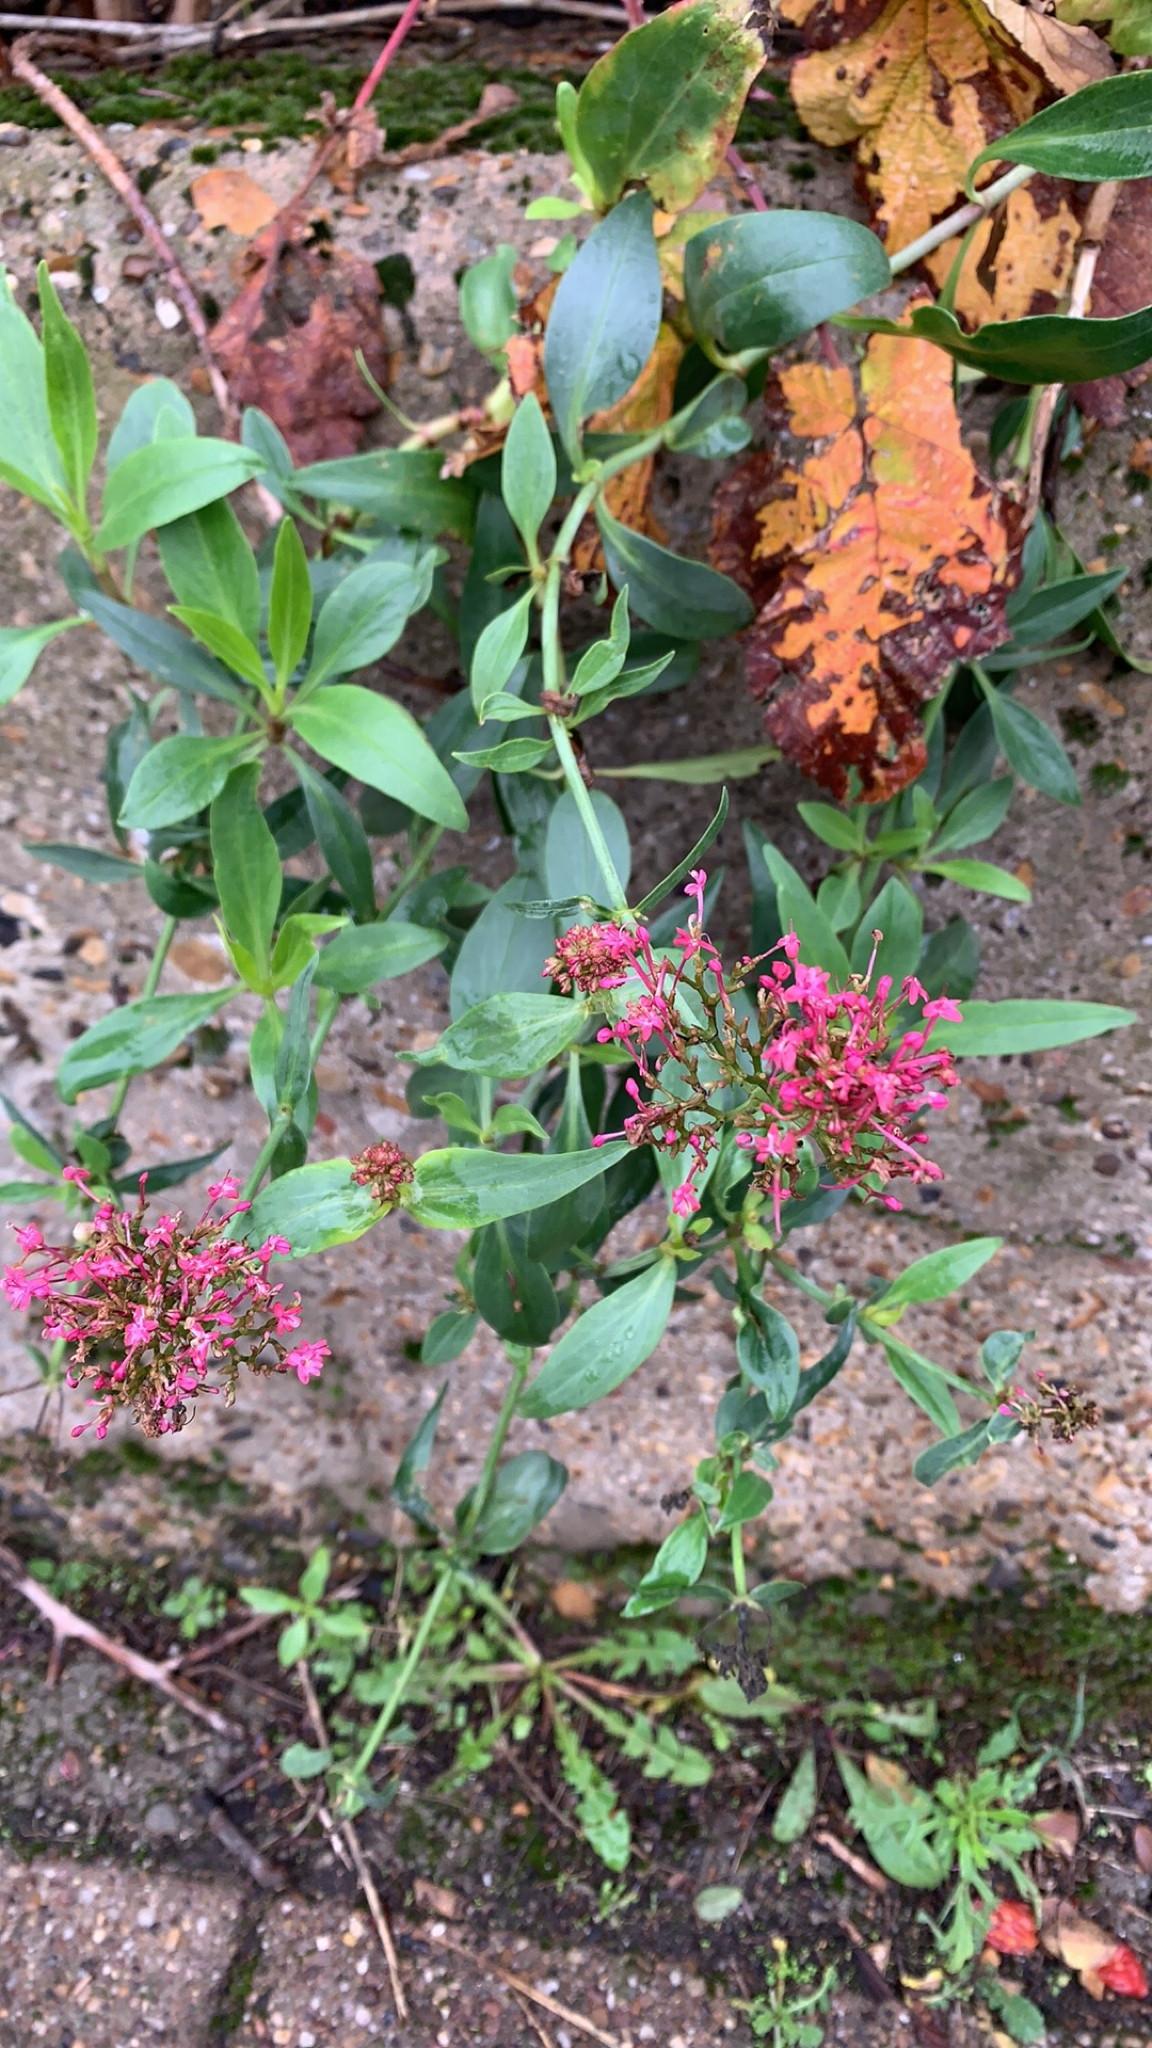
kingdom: Plantae
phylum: Tracheophyta
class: Magnoliopsida
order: Dipsacales
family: Caprifoliaceae
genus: Centranthus
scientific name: Centranthus ruber
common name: Red valerian
